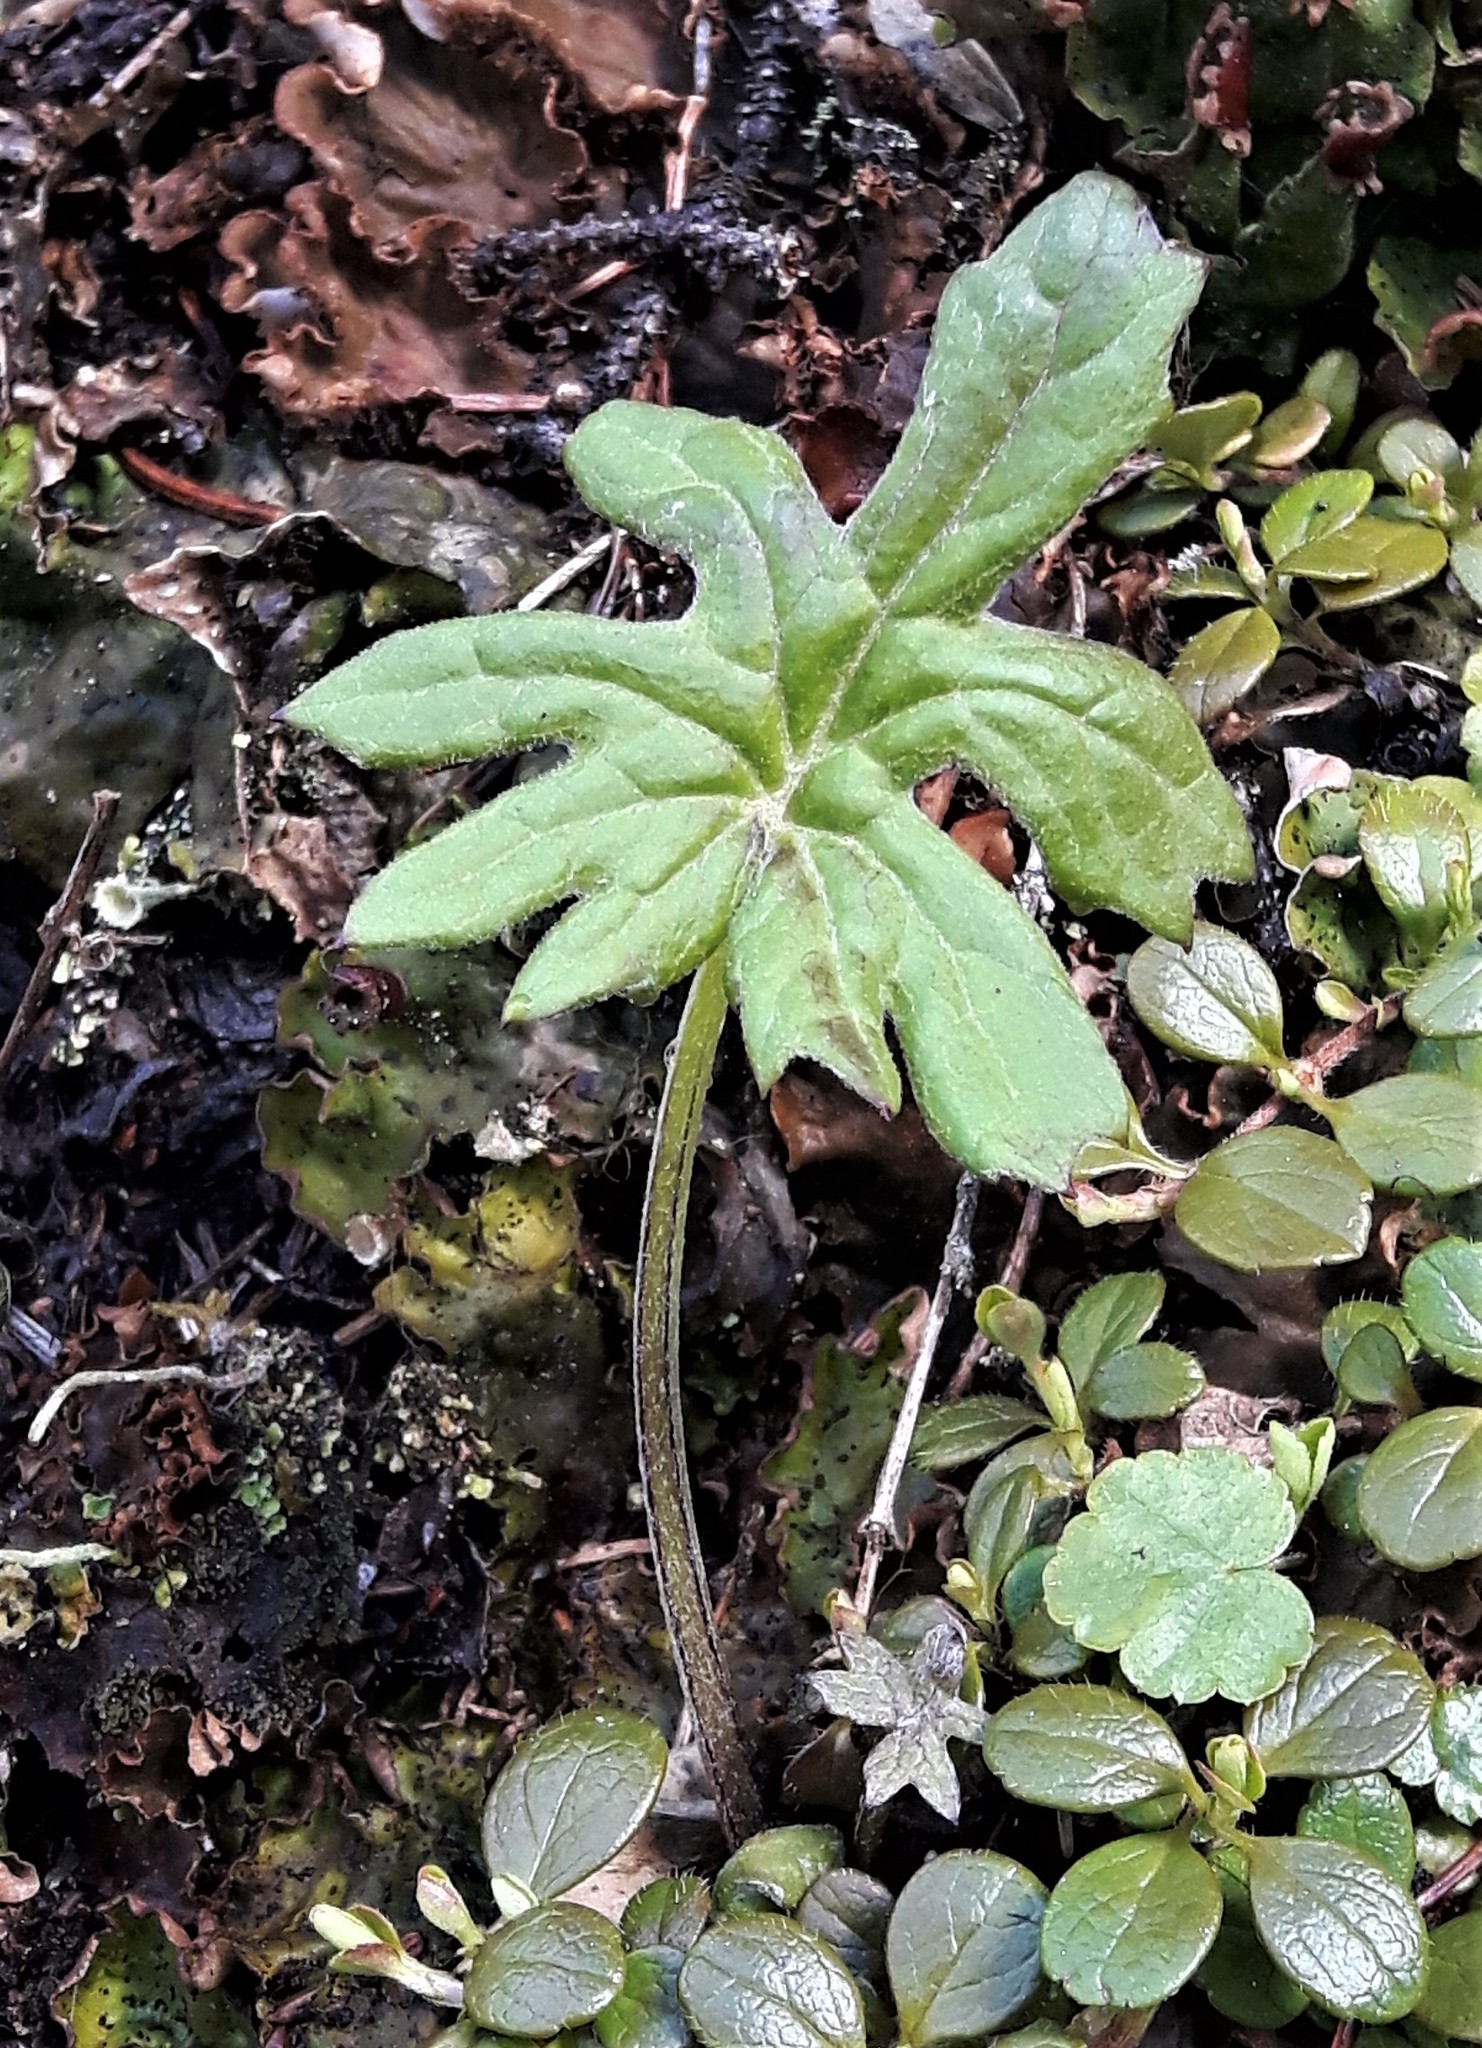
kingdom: Plantae
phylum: Tracheophyta
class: Magnoliopsida
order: Asterales
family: Asteraceae
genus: Petasites
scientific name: Petasites frigidus
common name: Arctic butterbur
